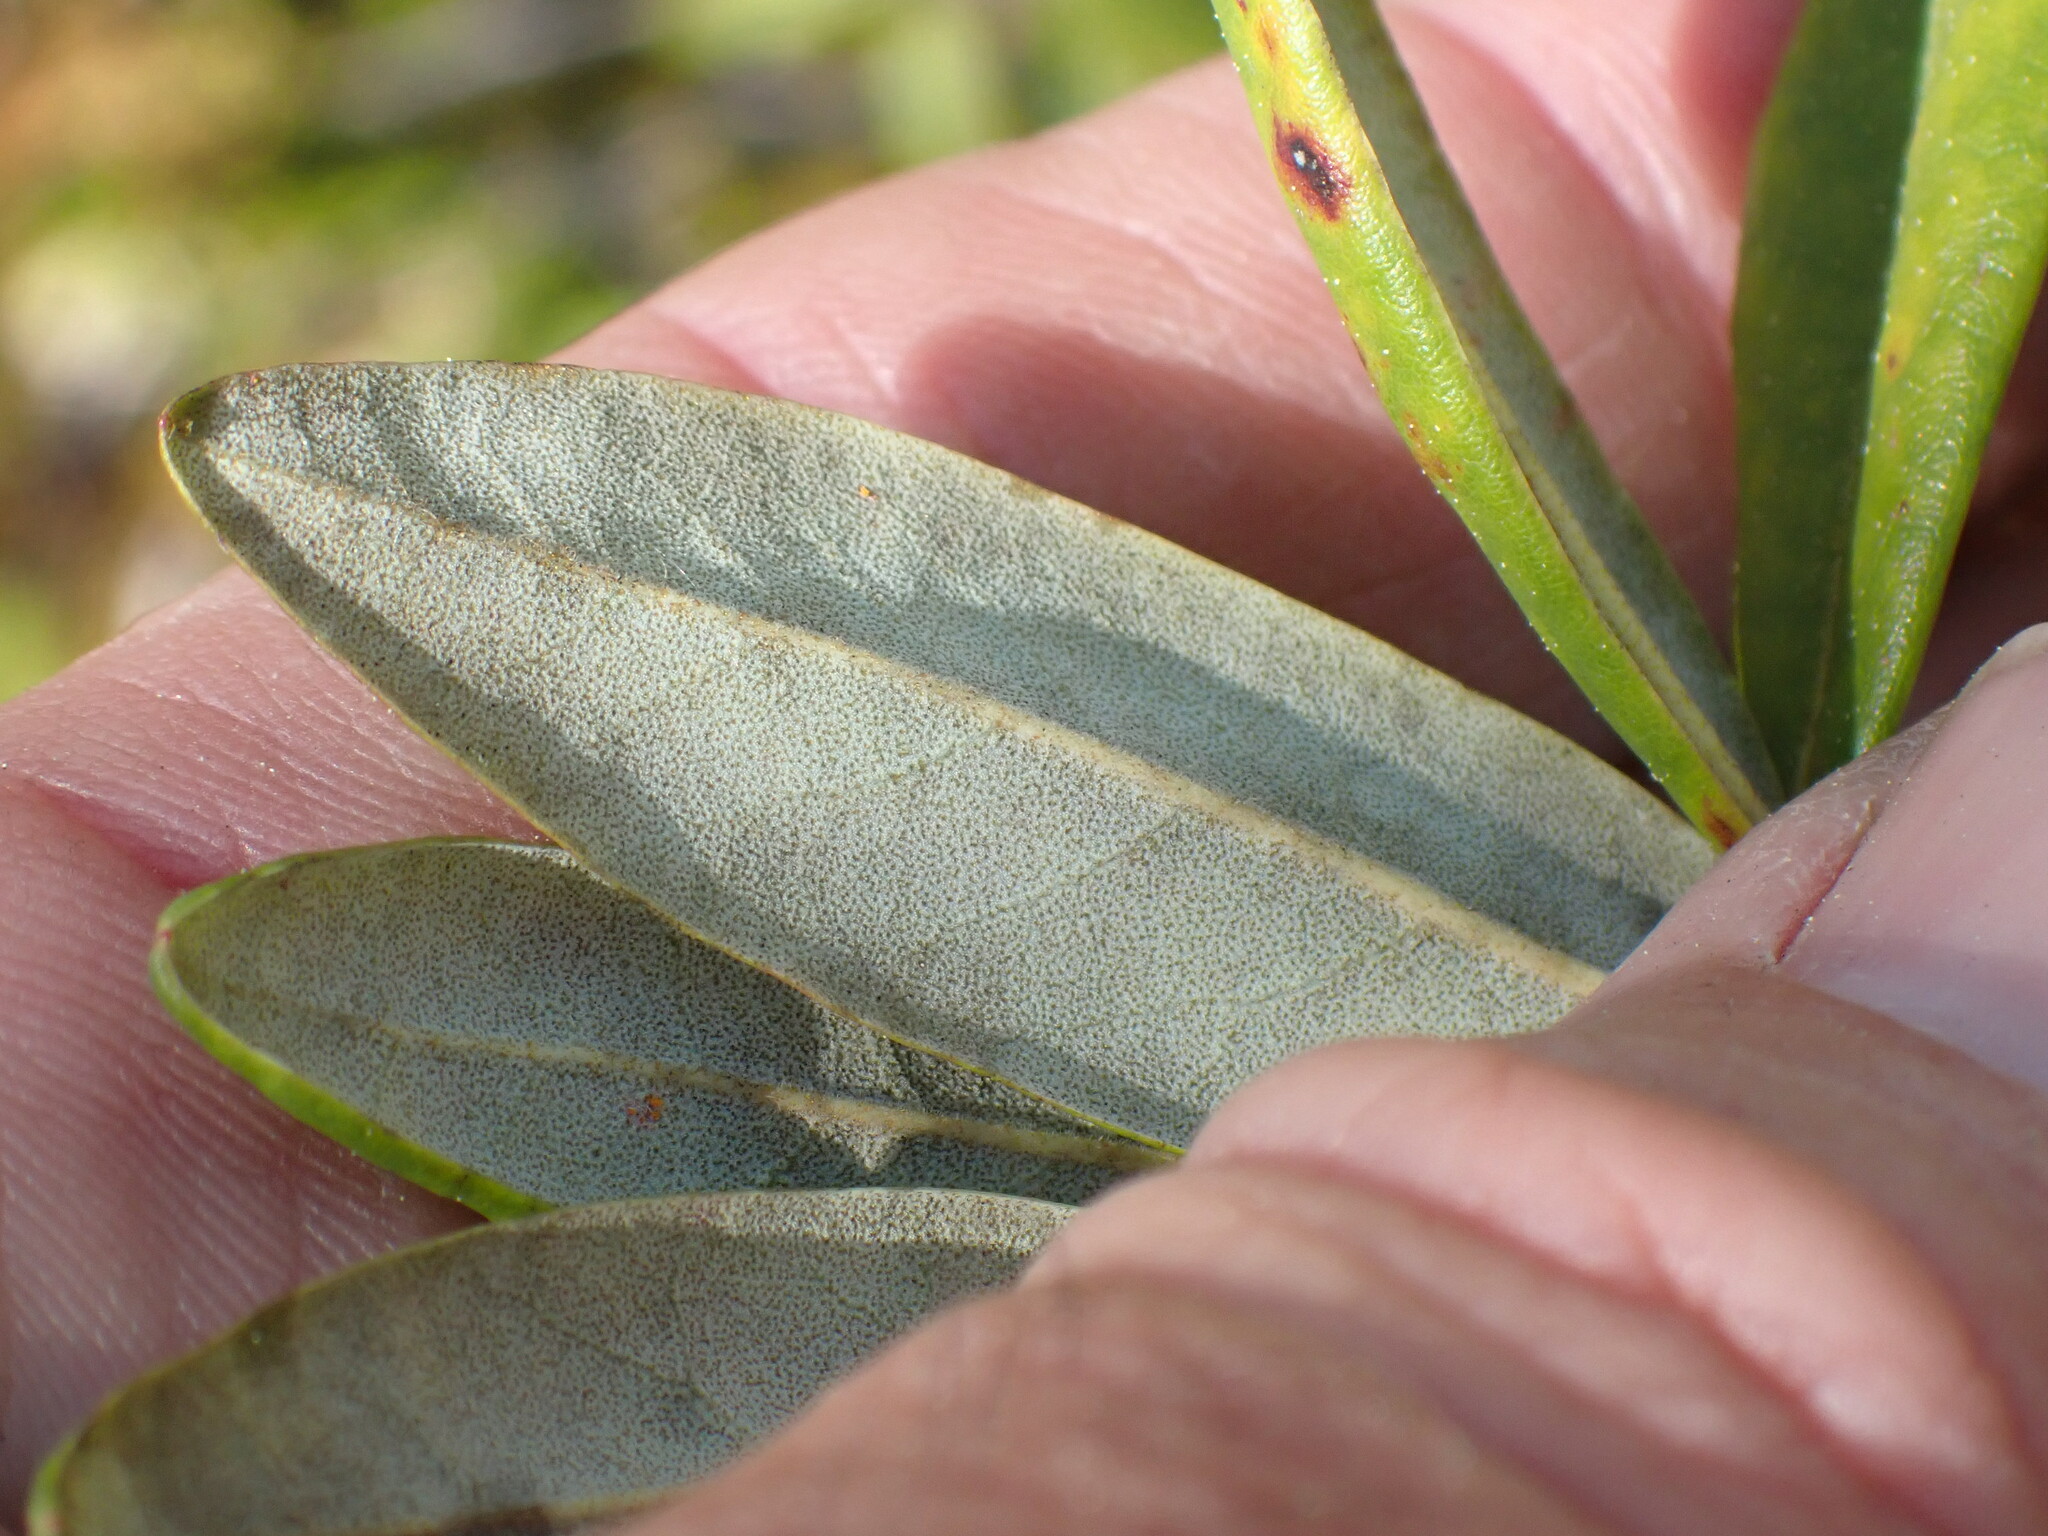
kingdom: Plantae
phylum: Tracheophyta
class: Magnoliopsida
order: Ericales
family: Ericaceae
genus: Rhododendron
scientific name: Rhododendron columbianum
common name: Western labrador tea
